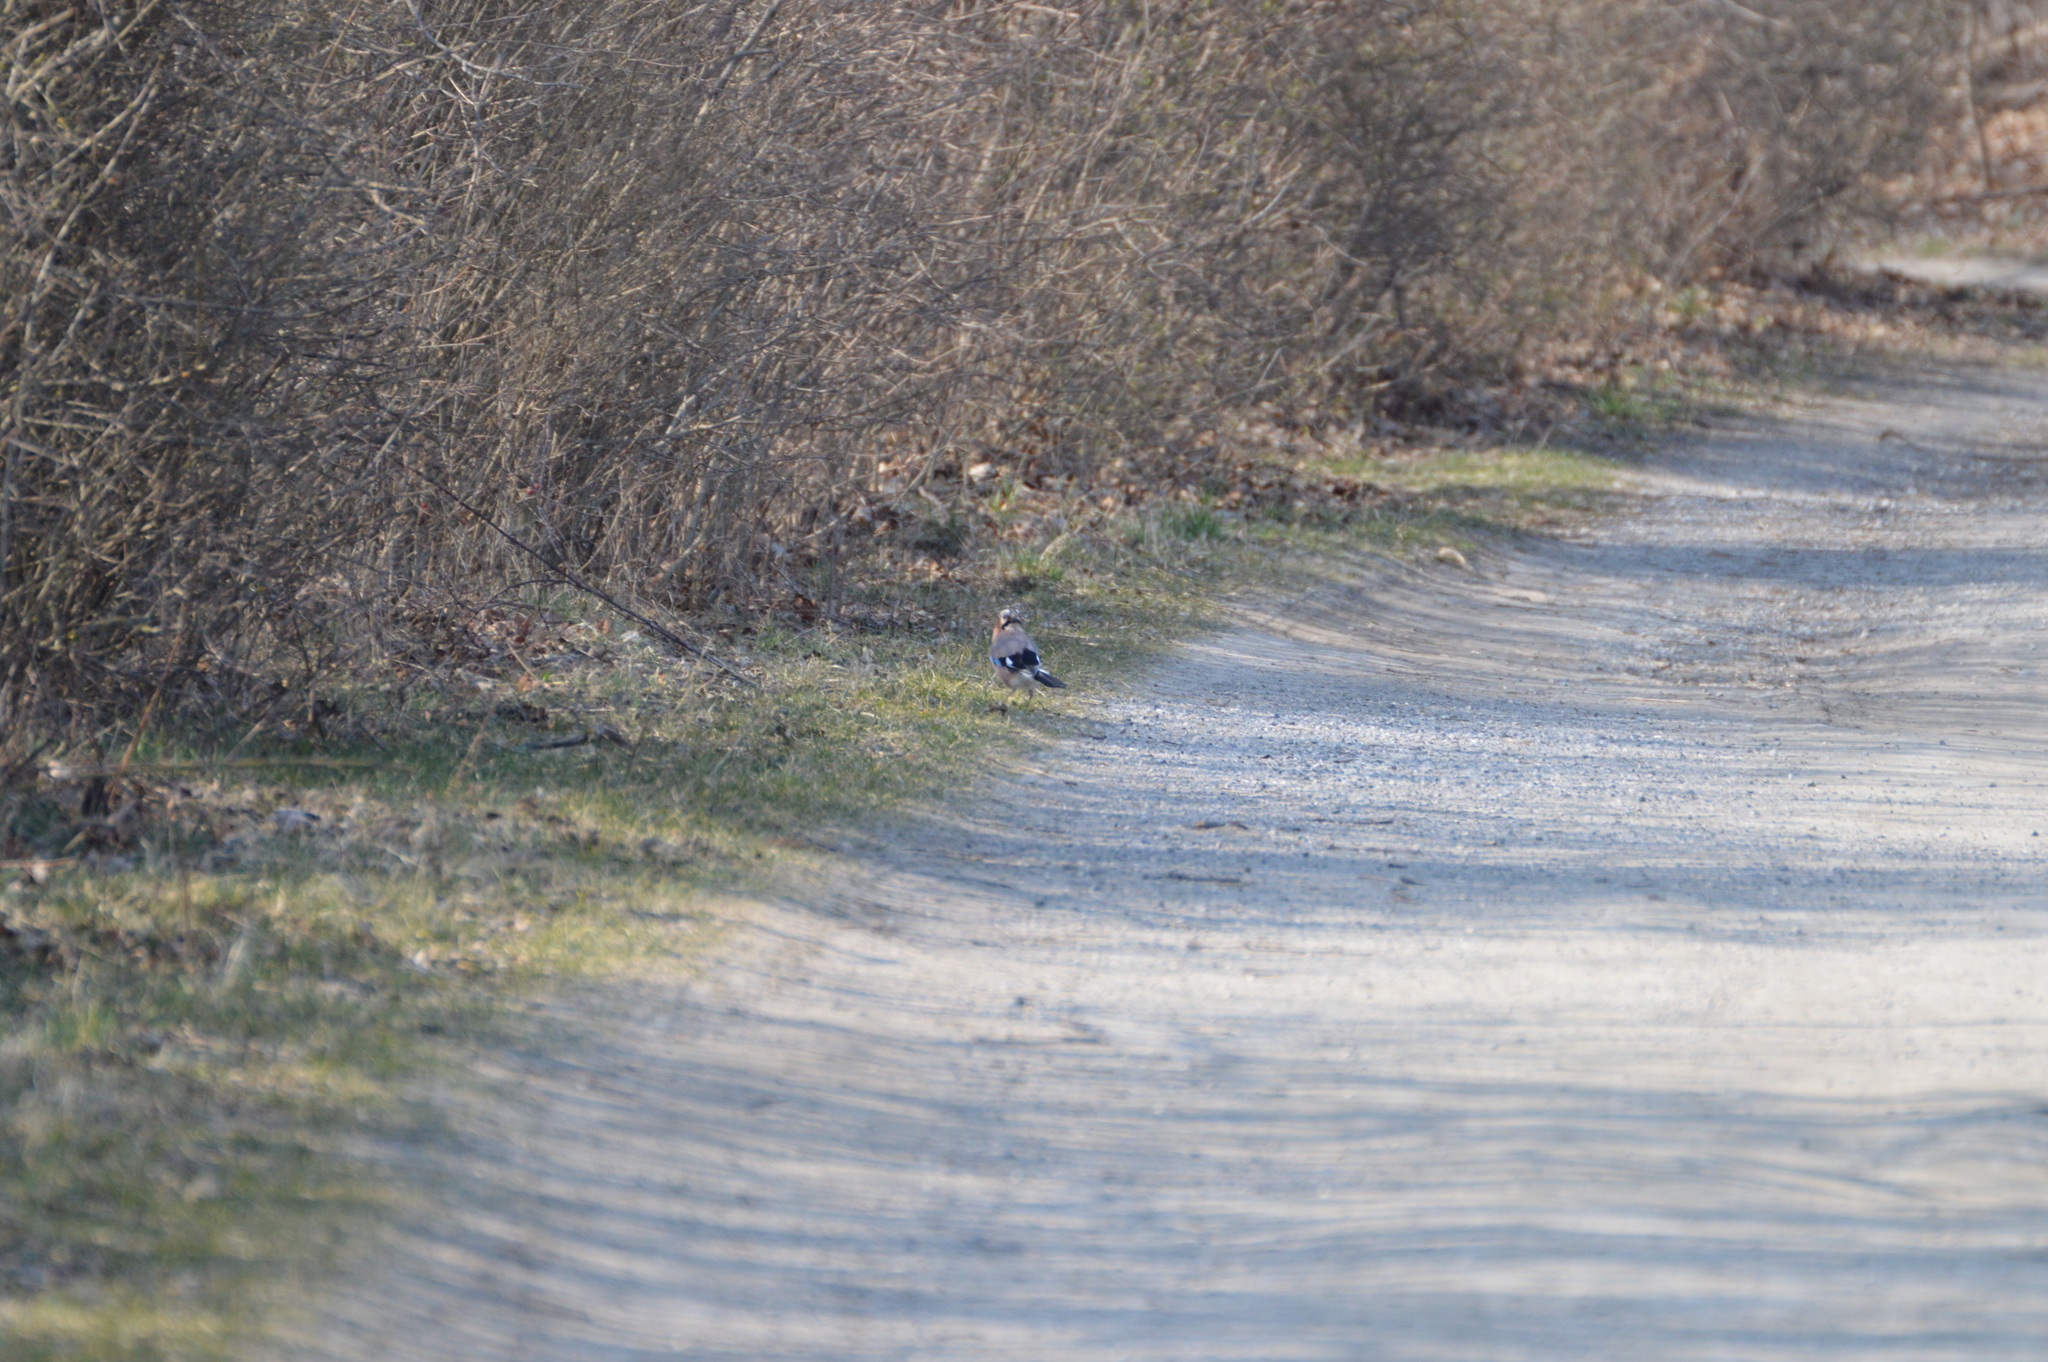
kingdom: Animalia
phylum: Chordata
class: Aves
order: Passeriformes
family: Corvidae
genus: Garrulus
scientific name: Garrulus glandarius
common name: Eurasian jay
